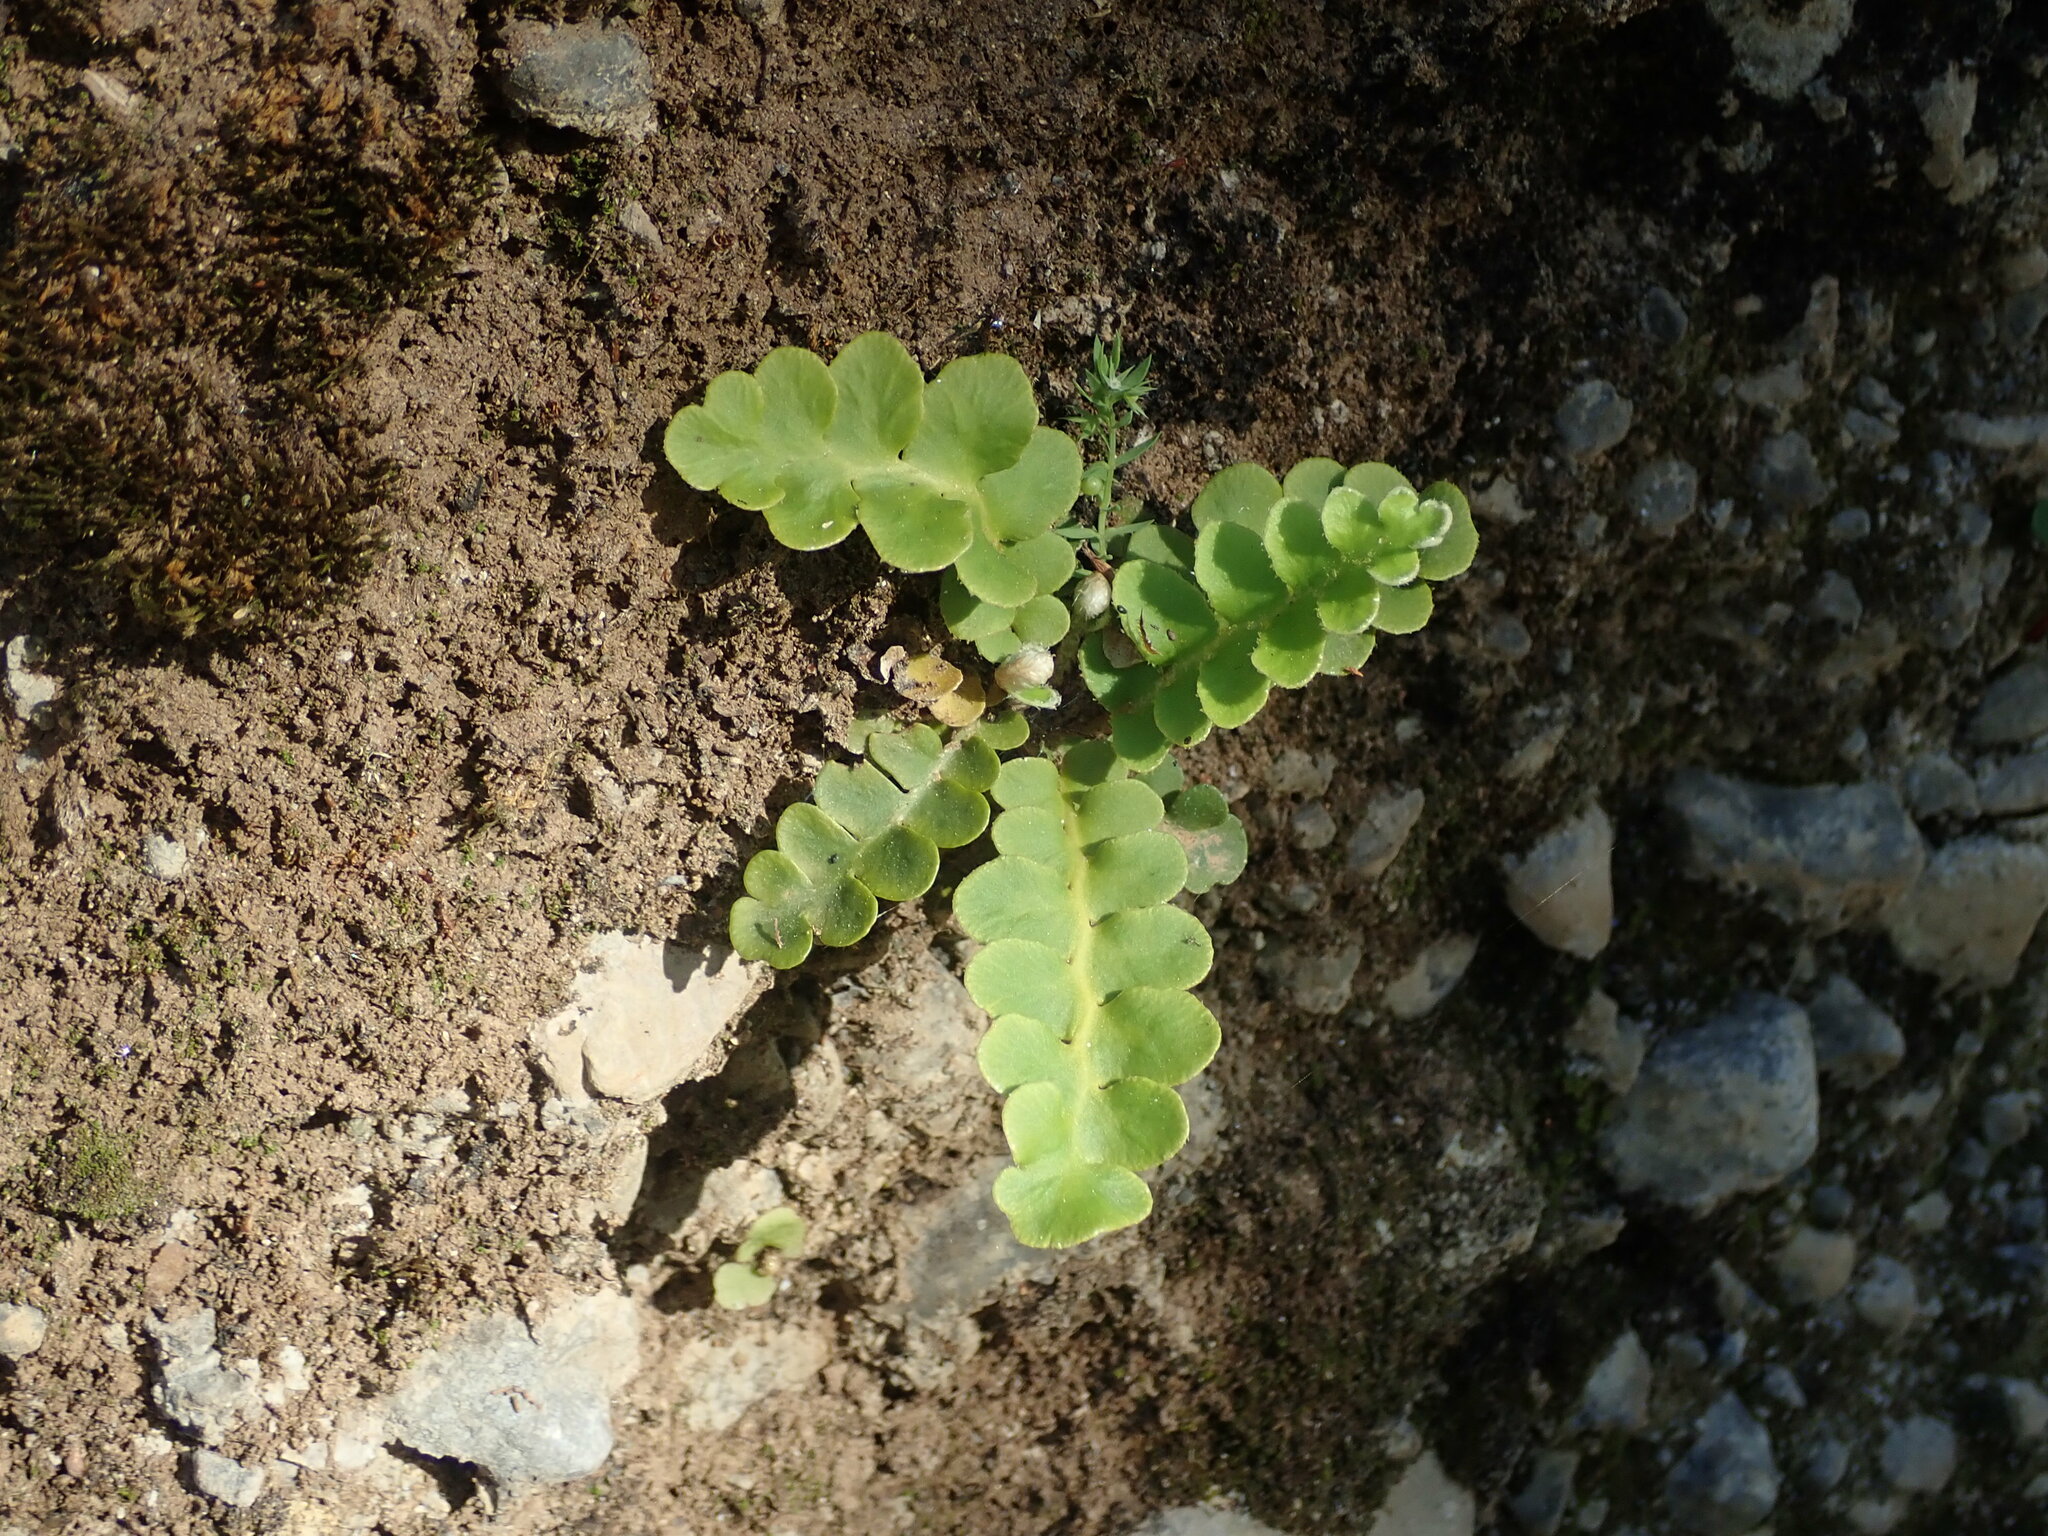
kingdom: Plantae
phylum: Tracheophyta
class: Polypodiopsida
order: Polypodiales
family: Aspleniaceae
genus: Asplenium
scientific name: Asplenium ceterach
